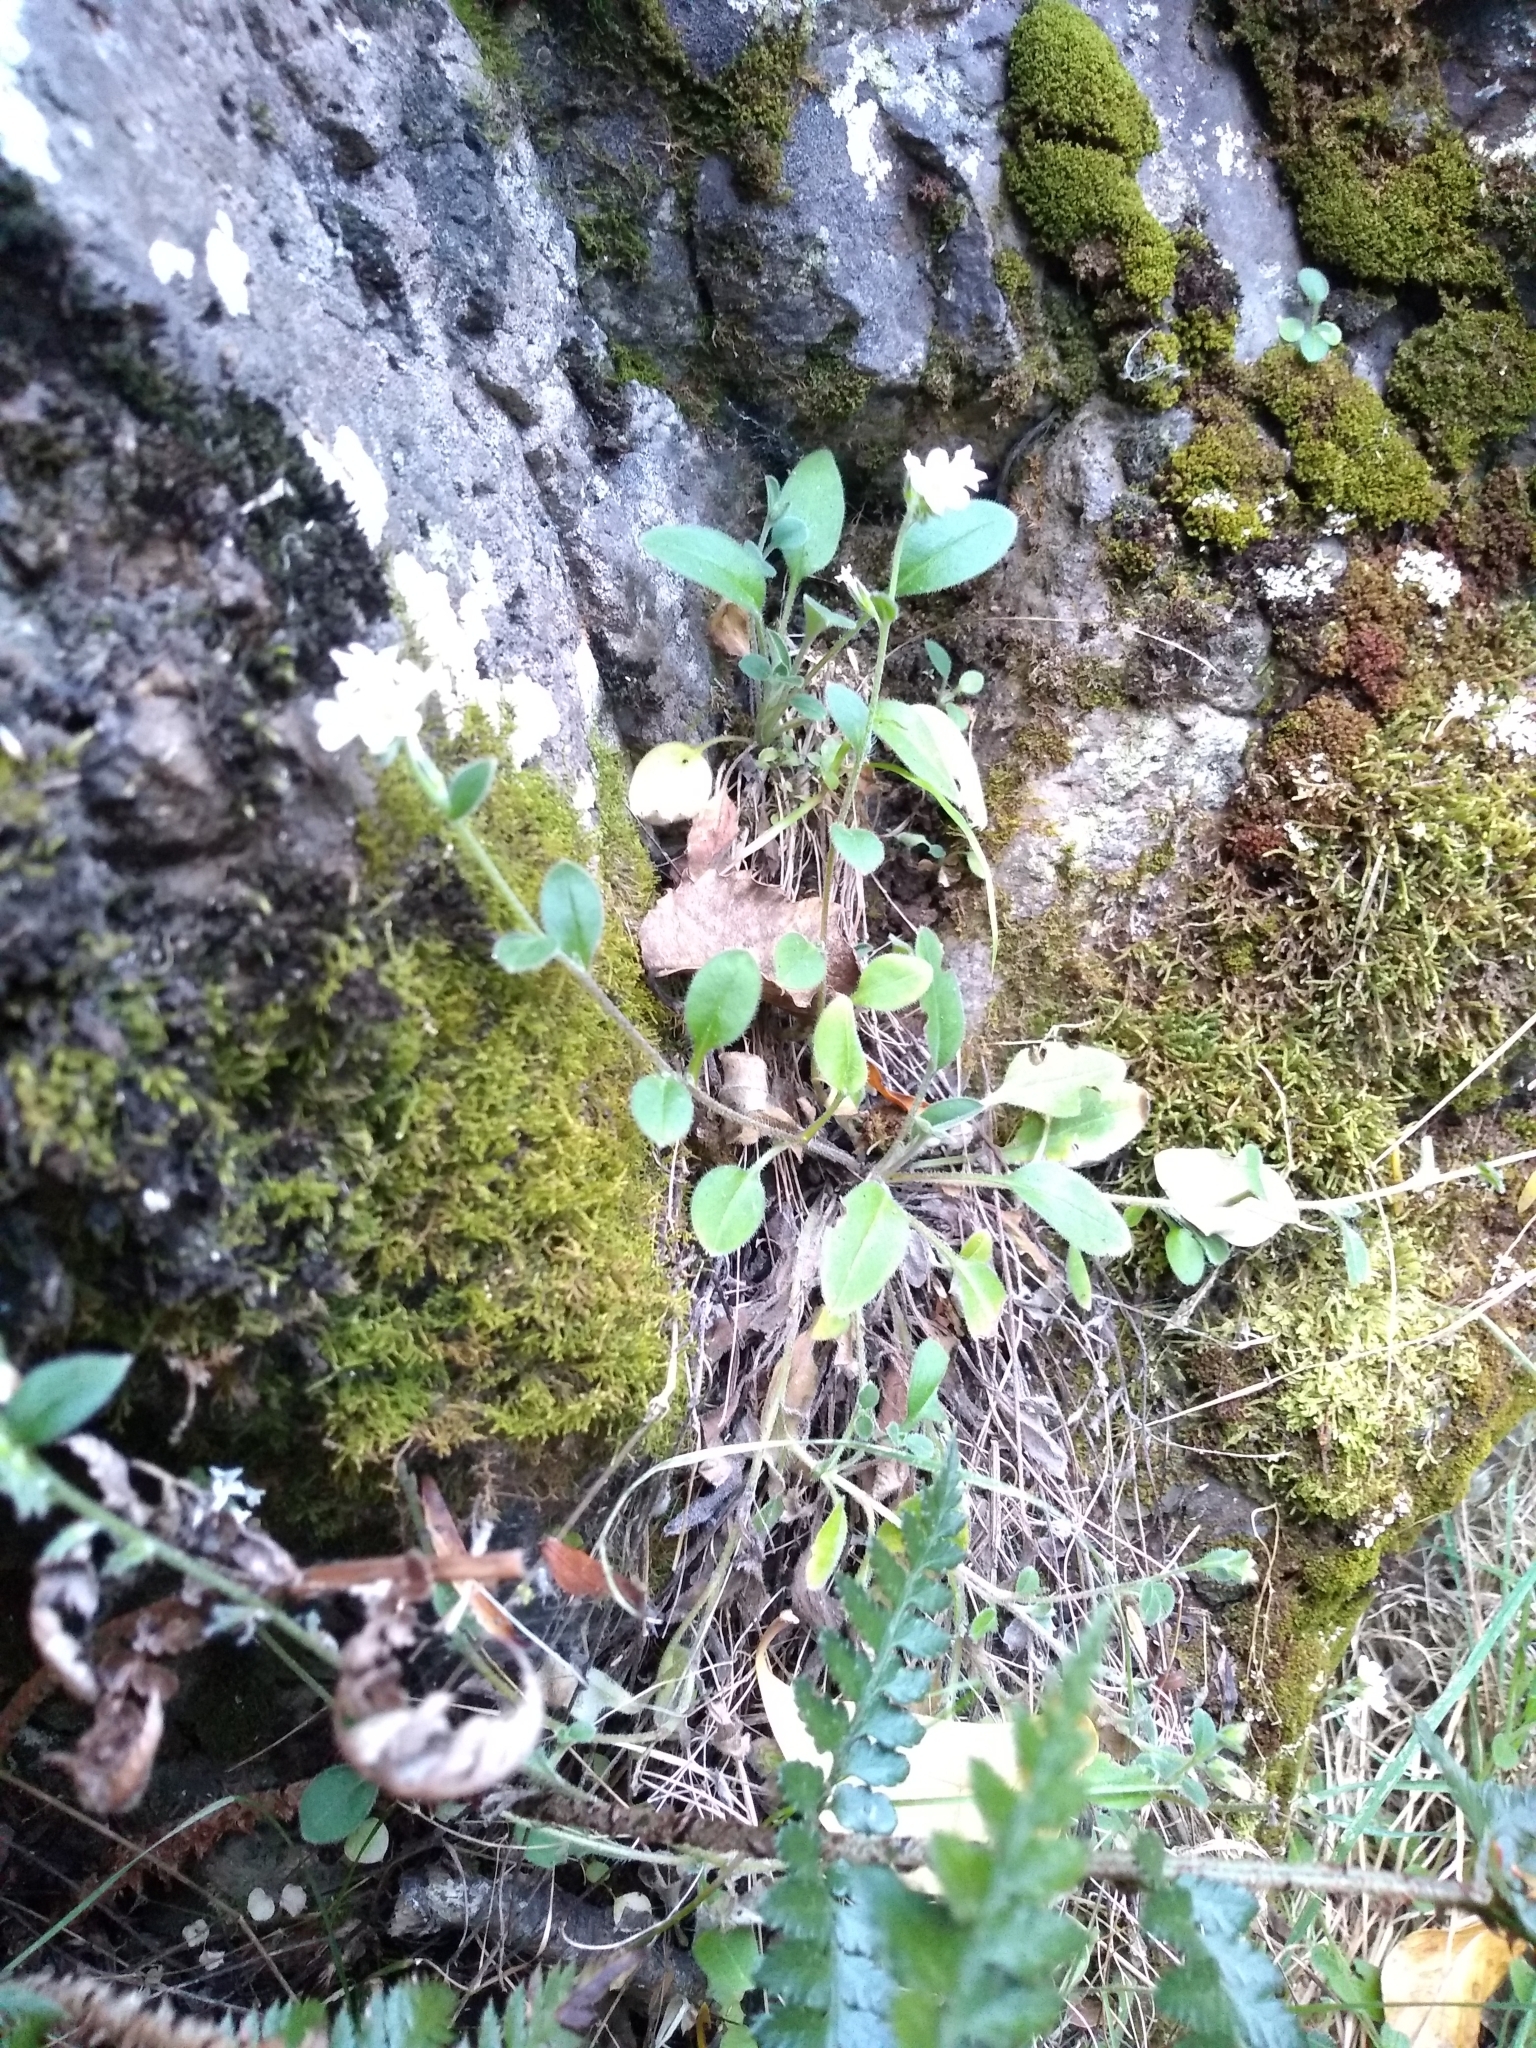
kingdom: Plantae
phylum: Tracheophyta
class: Magnoliopsida
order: Boraginales
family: Boraginaceae
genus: Myosotis
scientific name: Myosotis australis
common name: Australian forget-me-not
